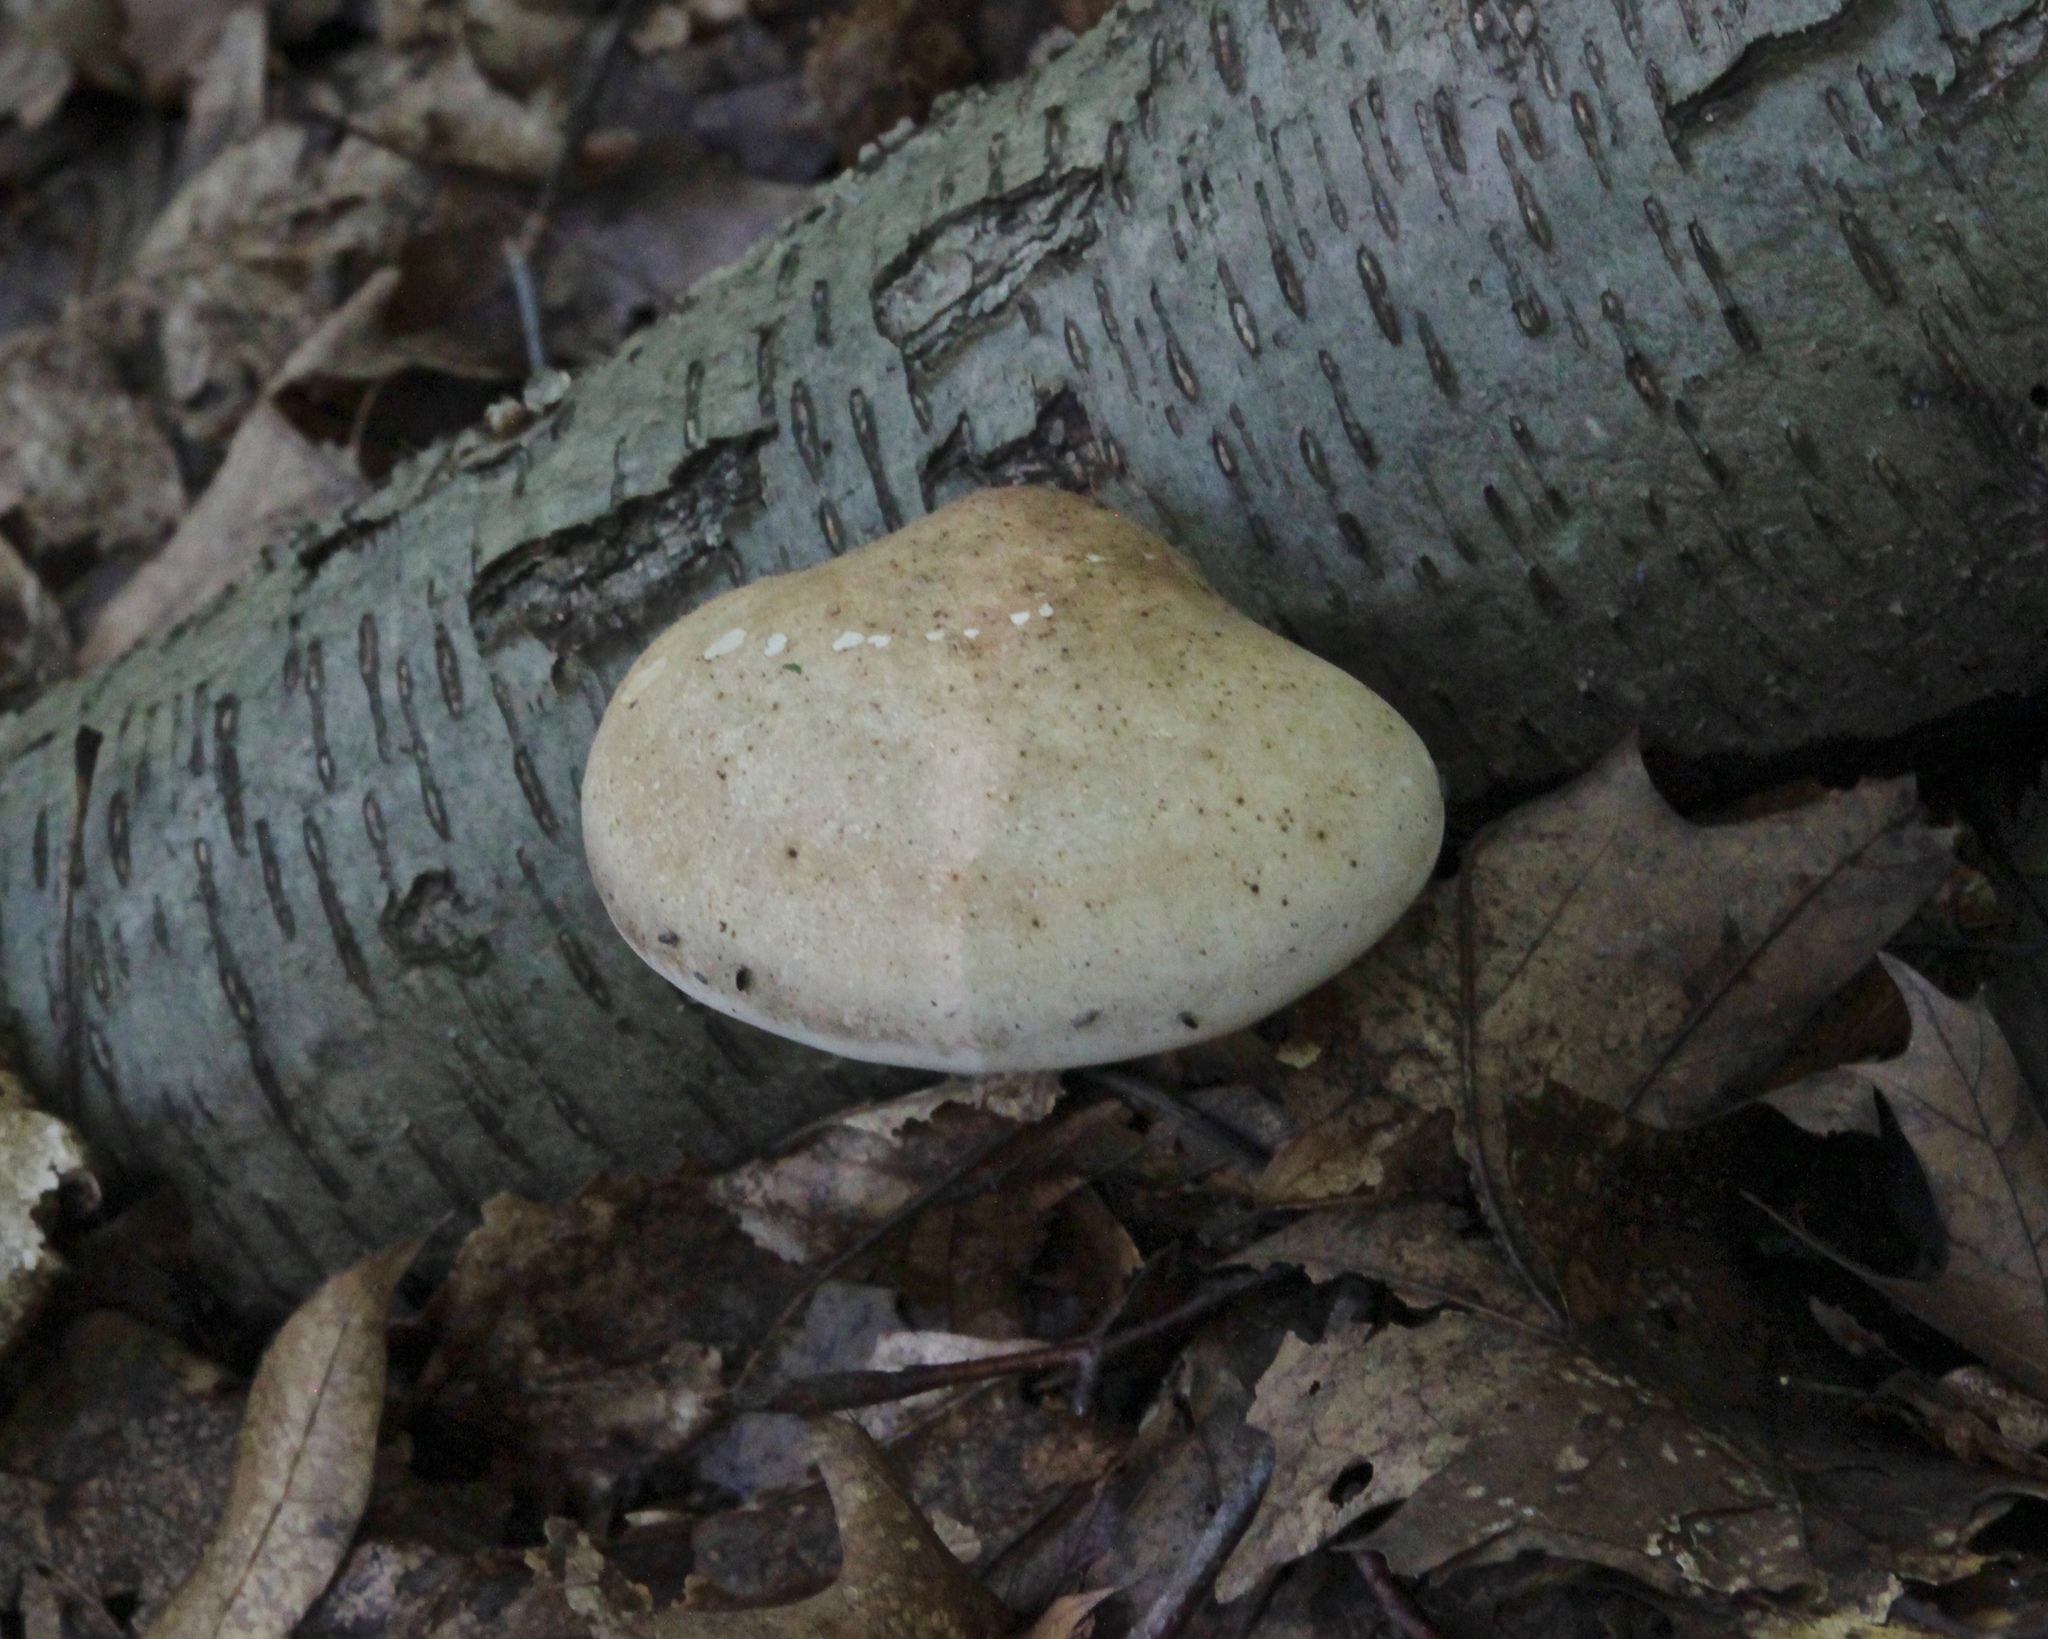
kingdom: Fungi
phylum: Basidiomycota
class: Agaricomycetes
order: Polyporales
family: Fomitopsidaceae
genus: Fomitopsis
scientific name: Fomitopsis betulina
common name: Birch polypore
